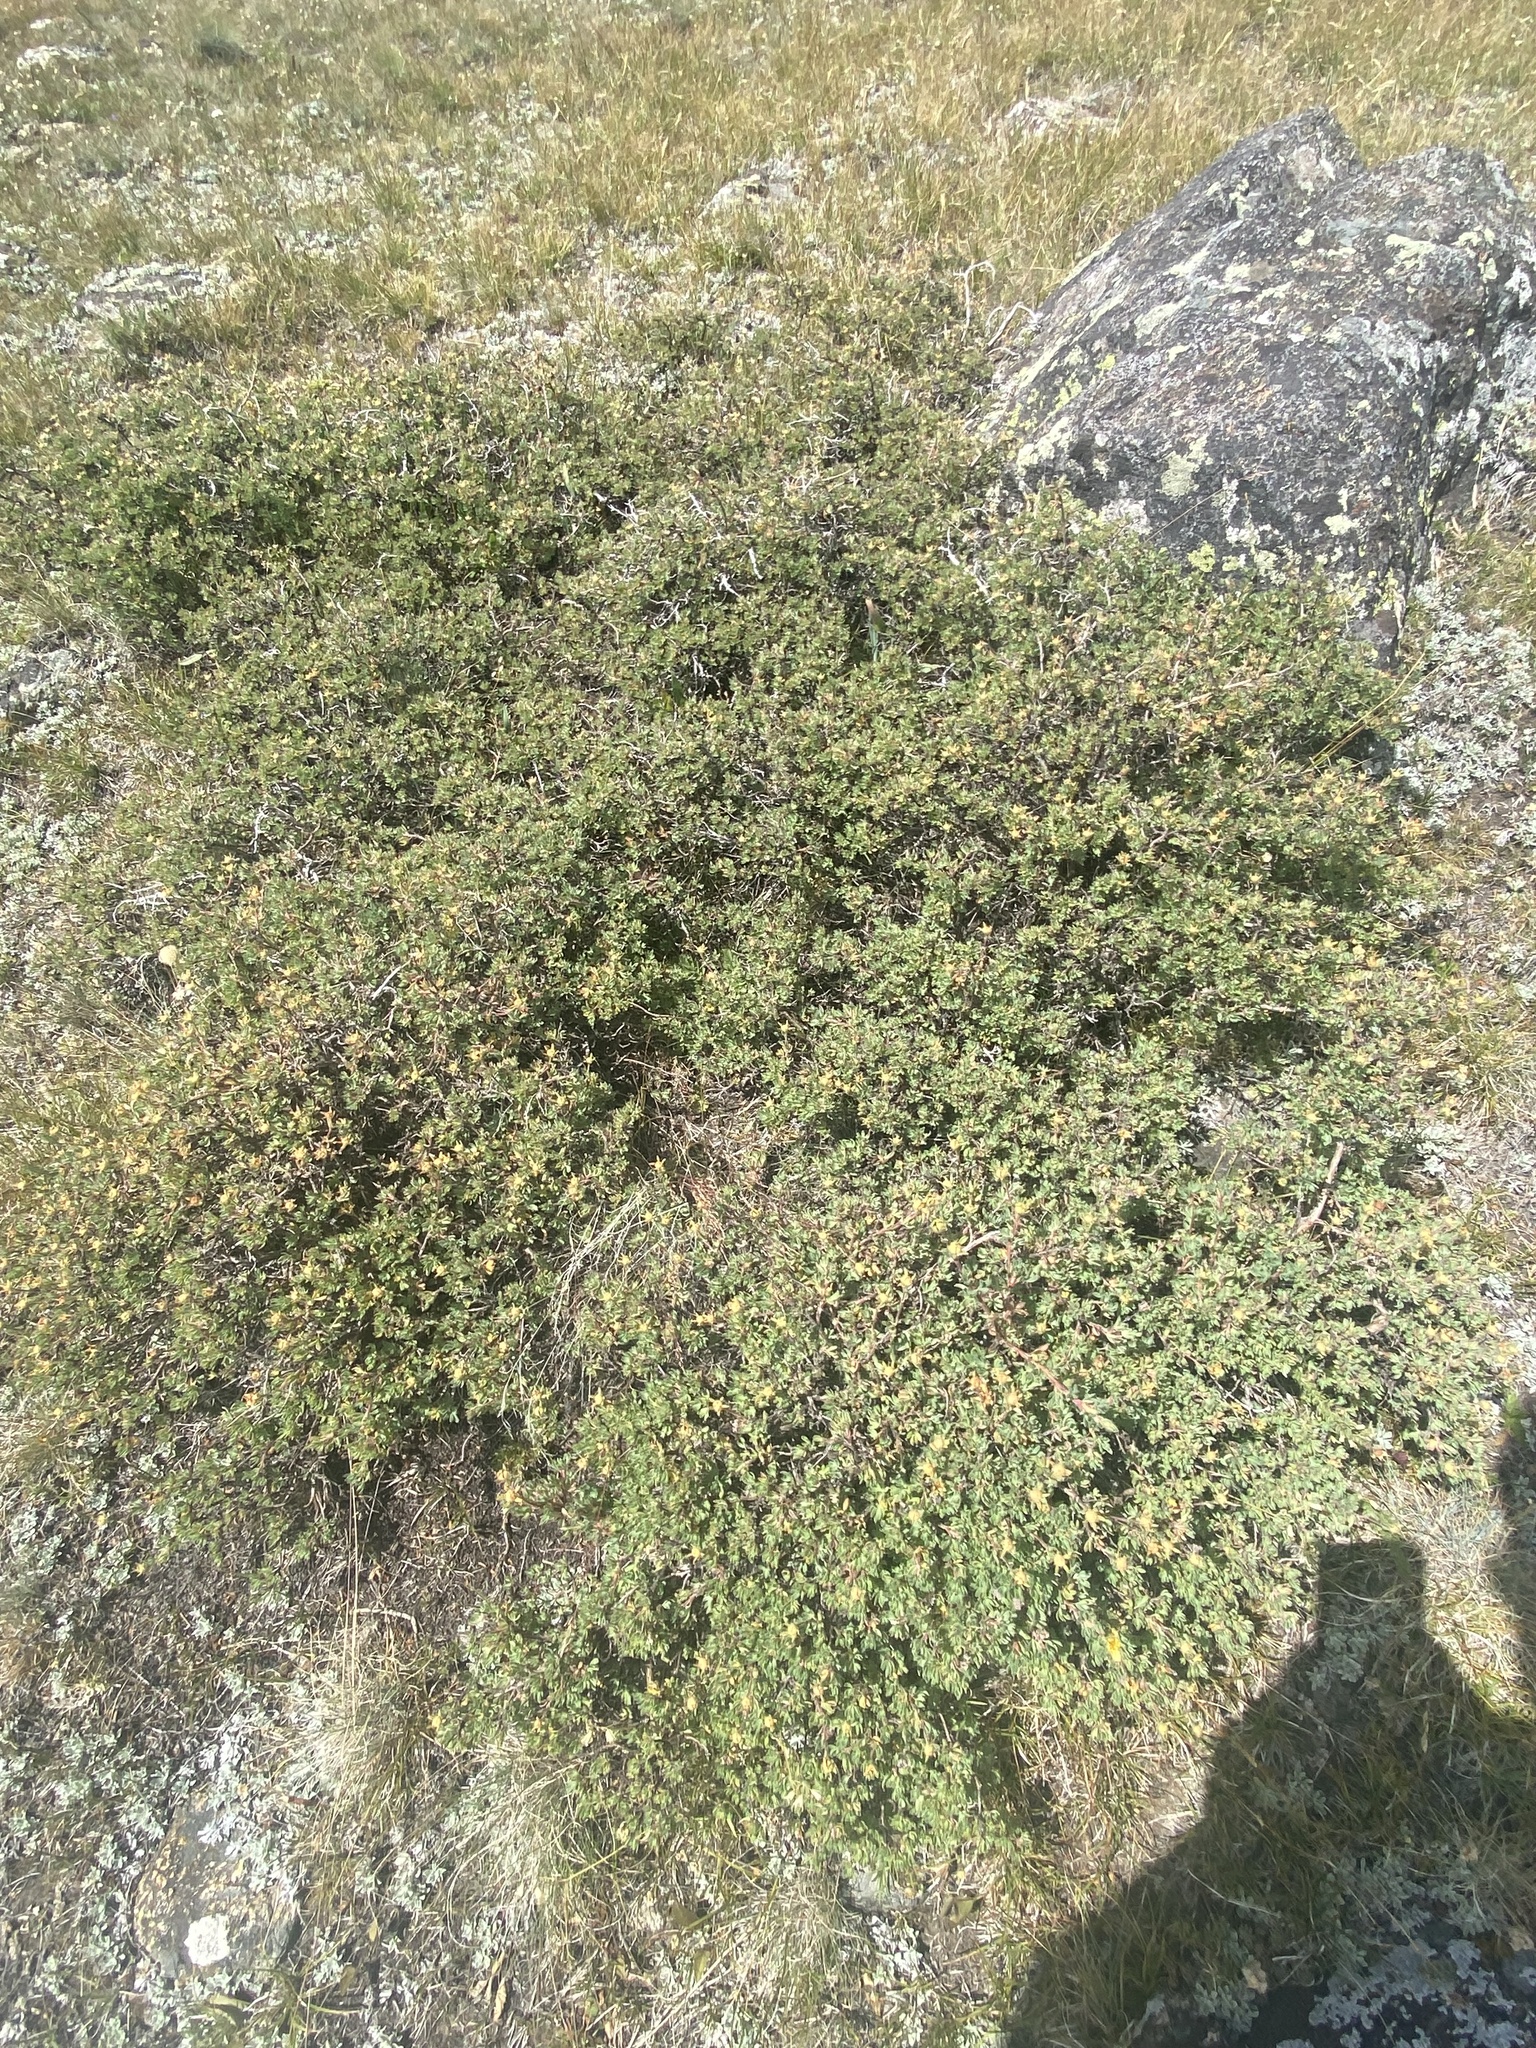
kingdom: Plantae
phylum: Tracheophyta
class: Magnoliopsida
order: Rosales
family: Rosaceae
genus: Dasiphora
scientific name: Dasiphora fruticosa
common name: Shrubby cinquefoil
